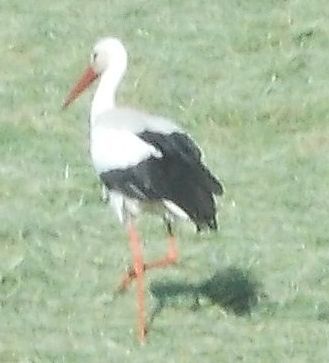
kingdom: Animalia
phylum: Chordata
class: Aves
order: Ciconiiformes
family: Ciconiidae
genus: Ciconia
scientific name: Ciconia ciconia
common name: White stork
